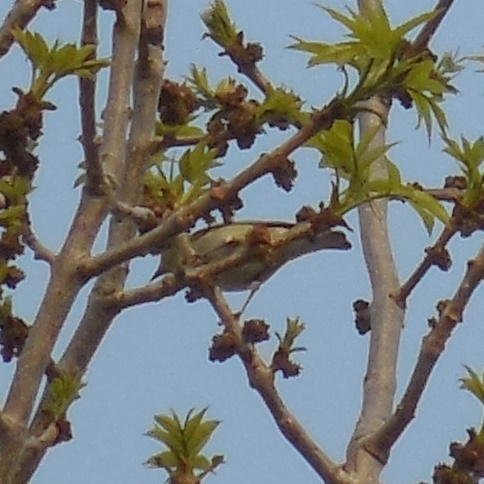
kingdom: Animalia
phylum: Chordata
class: Aves
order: Passeriformes
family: Parulidae
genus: Leiothlypis
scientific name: Leiothlypis peregrina
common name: Tennessee warbler
